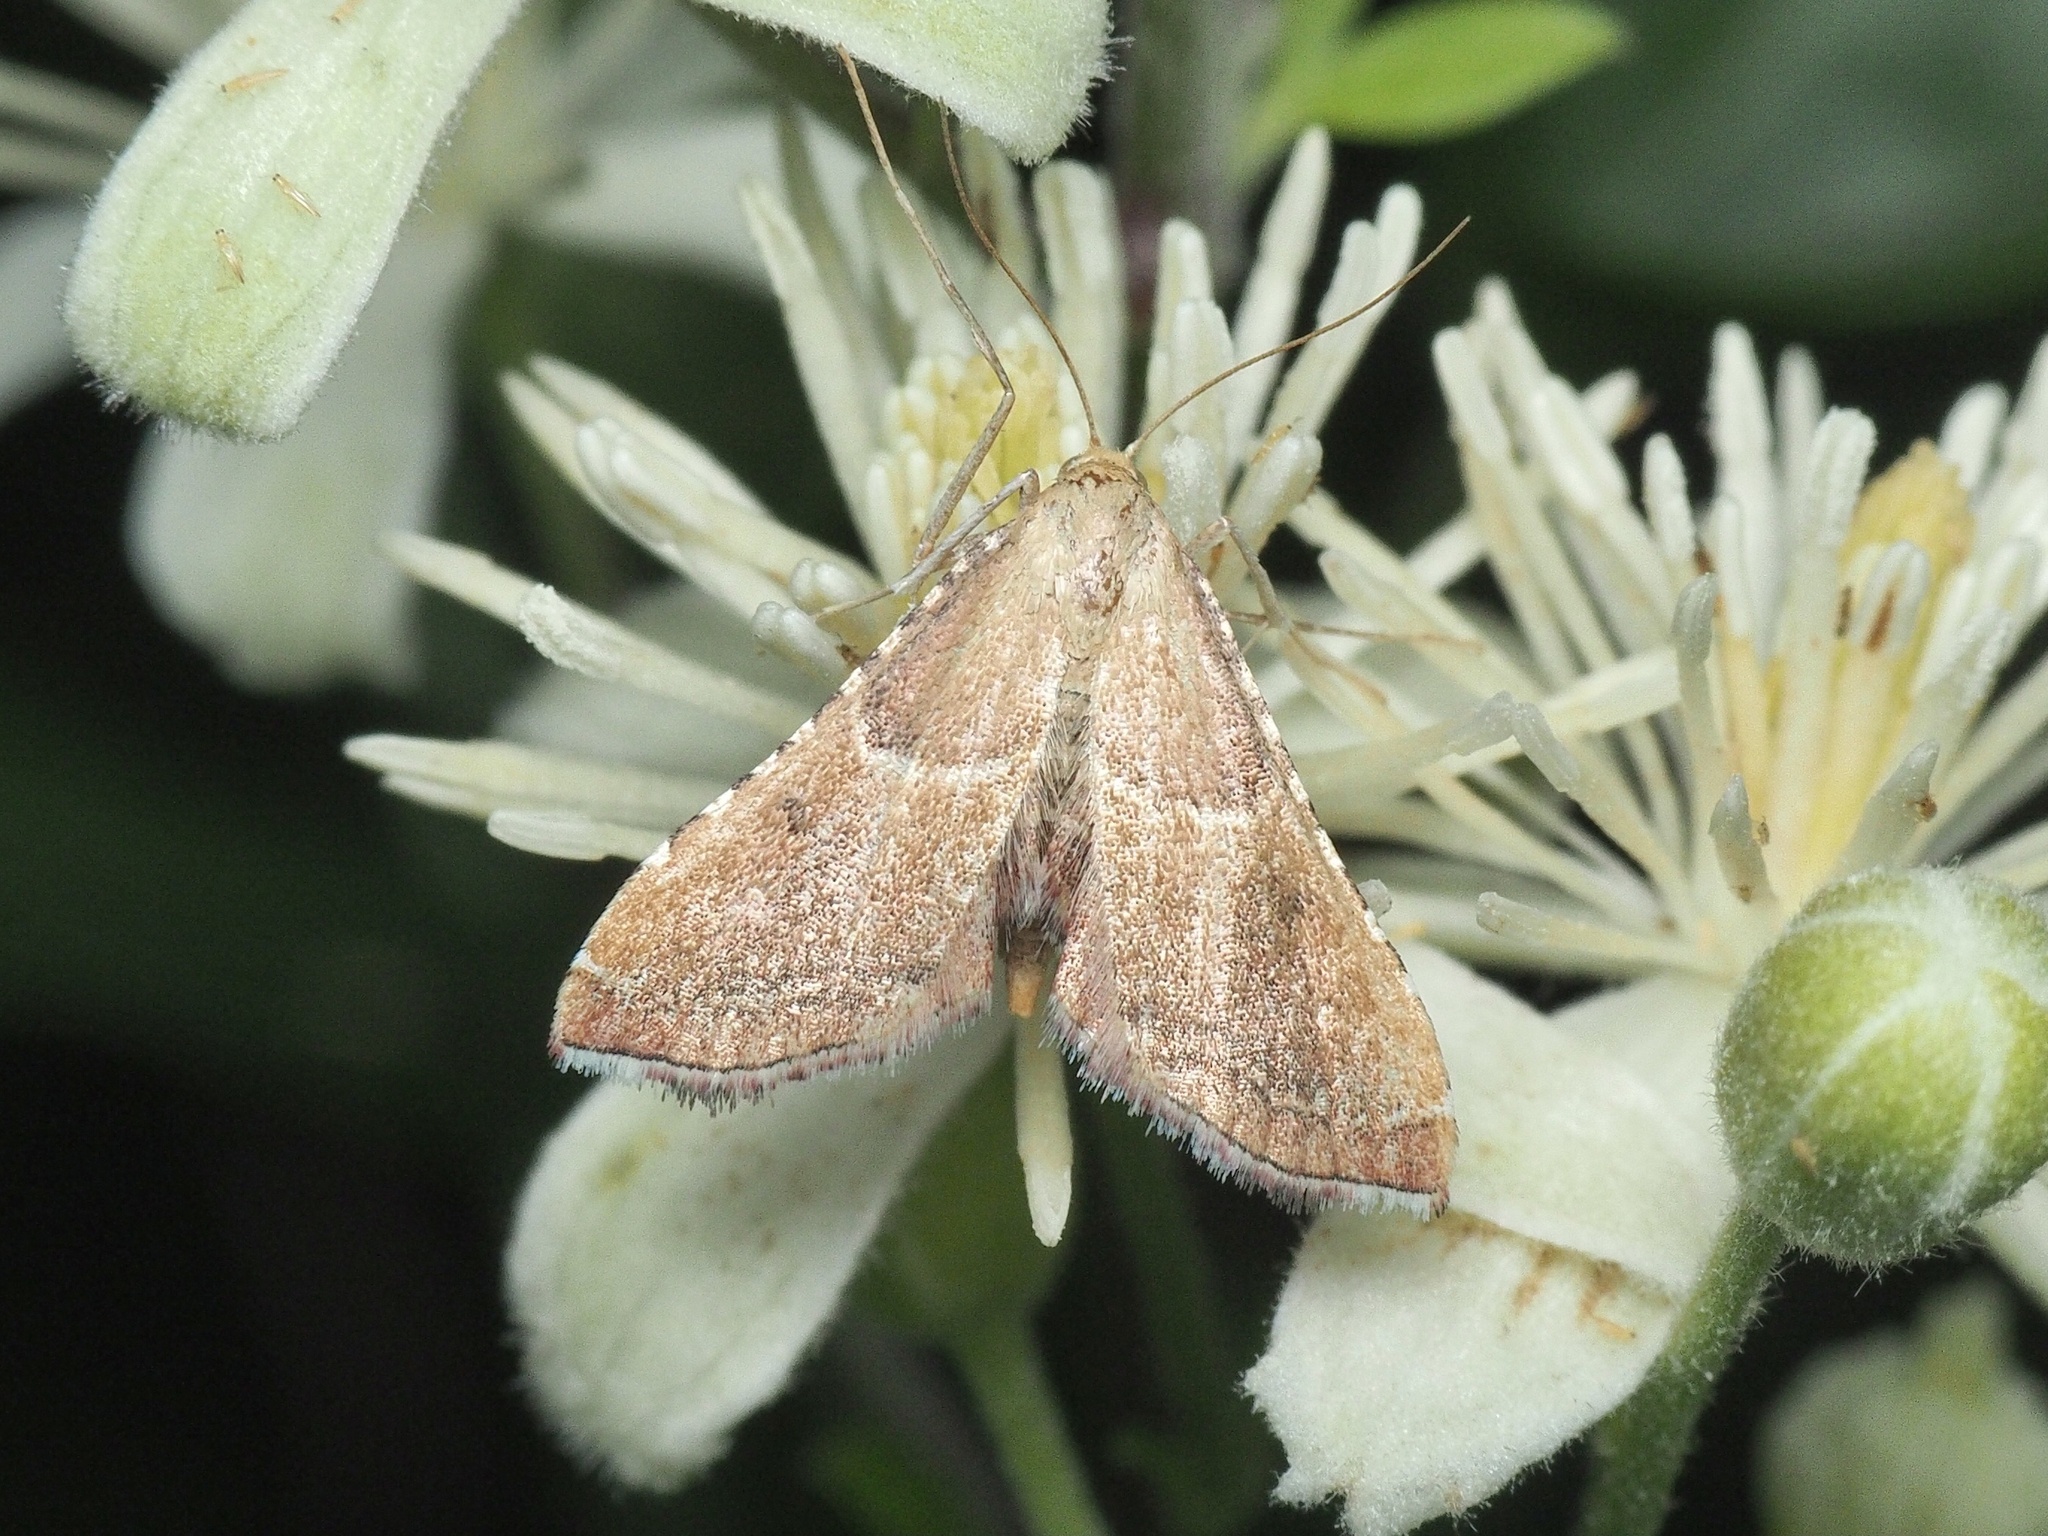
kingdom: Animalia
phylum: Arthropoda
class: Insecta
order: Lepidoptera
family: Pyralidae
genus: Endotricha
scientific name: Endotricha flammealis
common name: Rosy tabby
